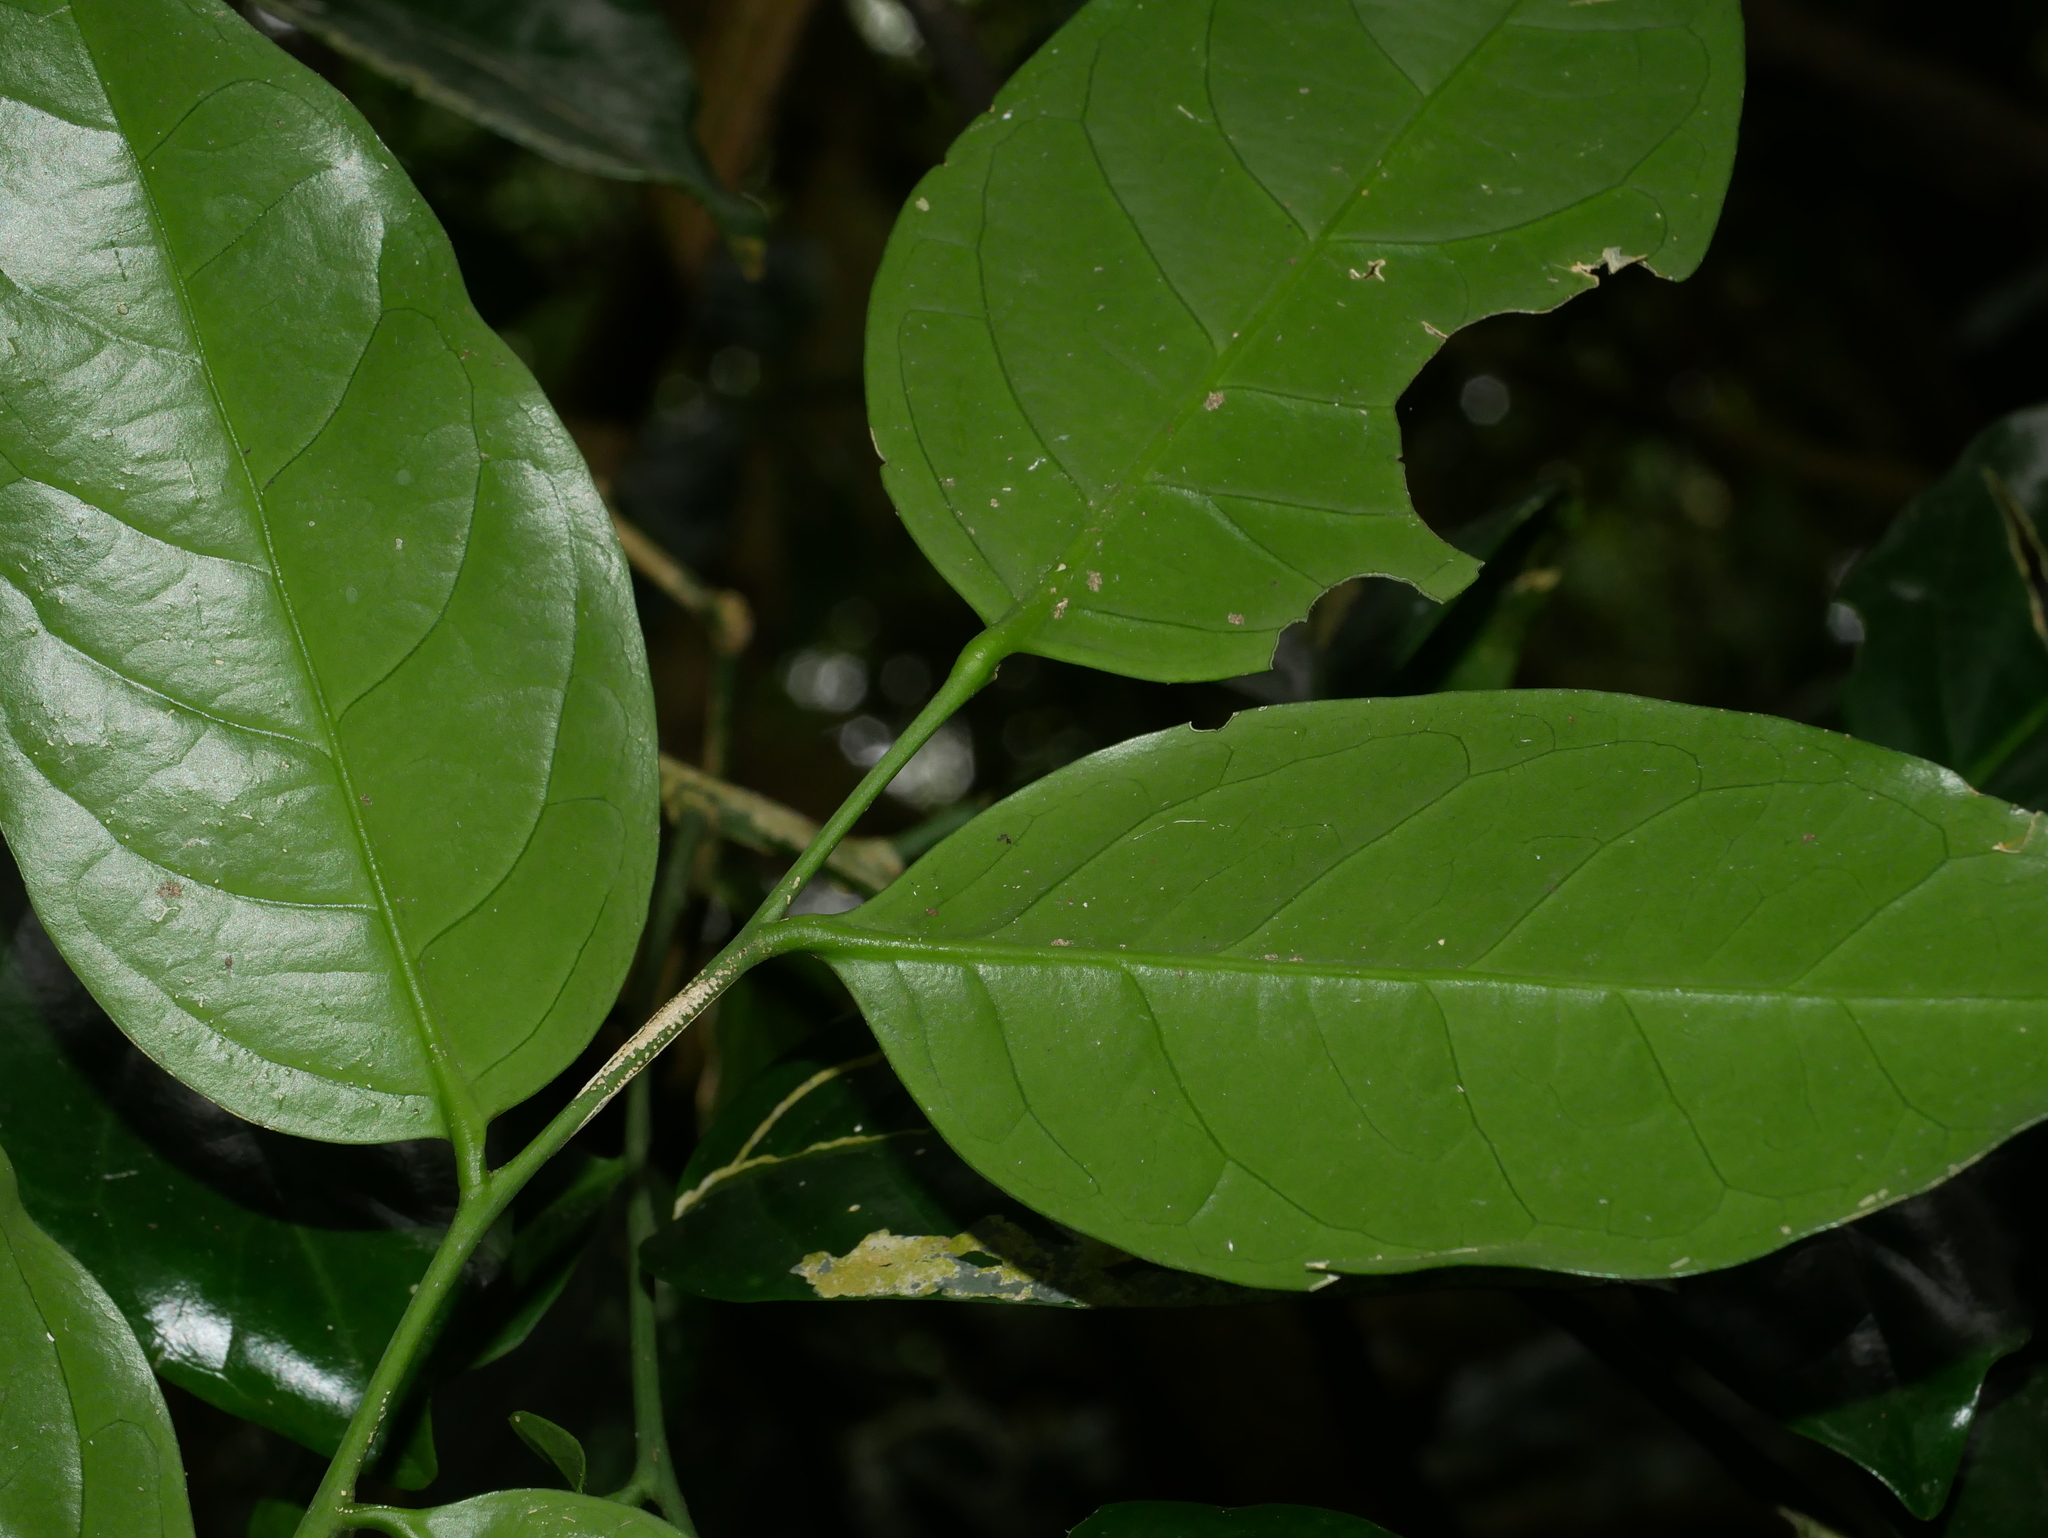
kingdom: Plantae
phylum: Tracheophyta
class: Magnoliopsida
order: Santalales
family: Opiliaceae
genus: Champereia
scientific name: Champereia manillana
